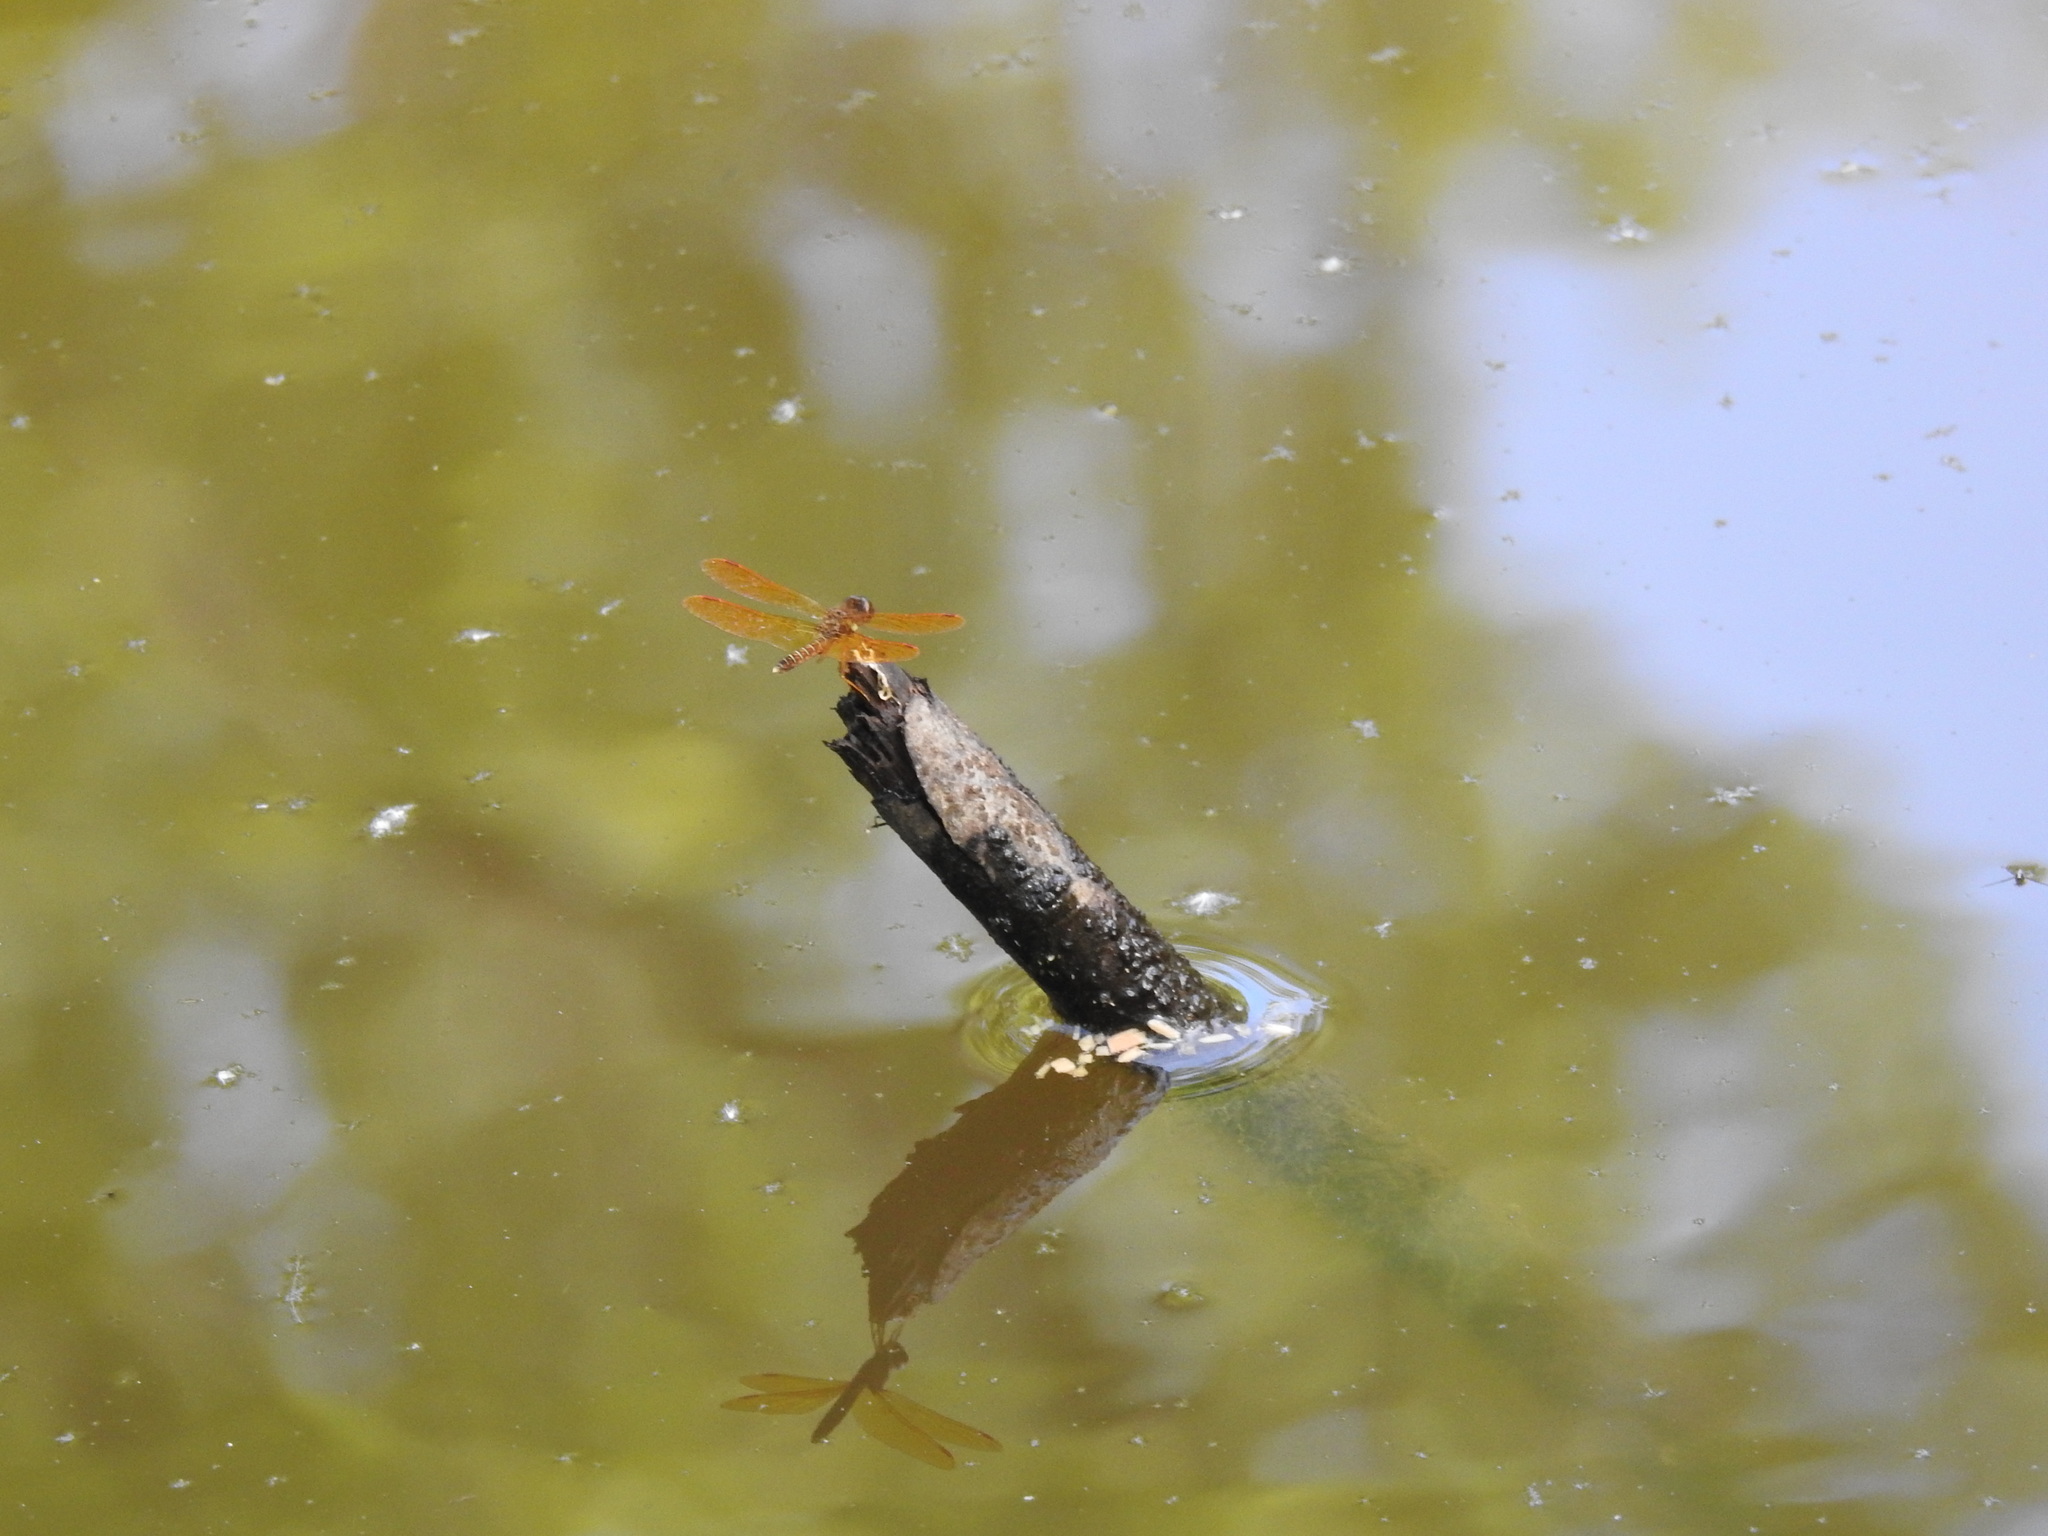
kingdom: Animalia
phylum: Arthropoda
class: Insecta
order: Odonata
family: Libellulidae
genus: Perithemis
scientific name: Perithemis tenera
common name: Eastern amberwing
